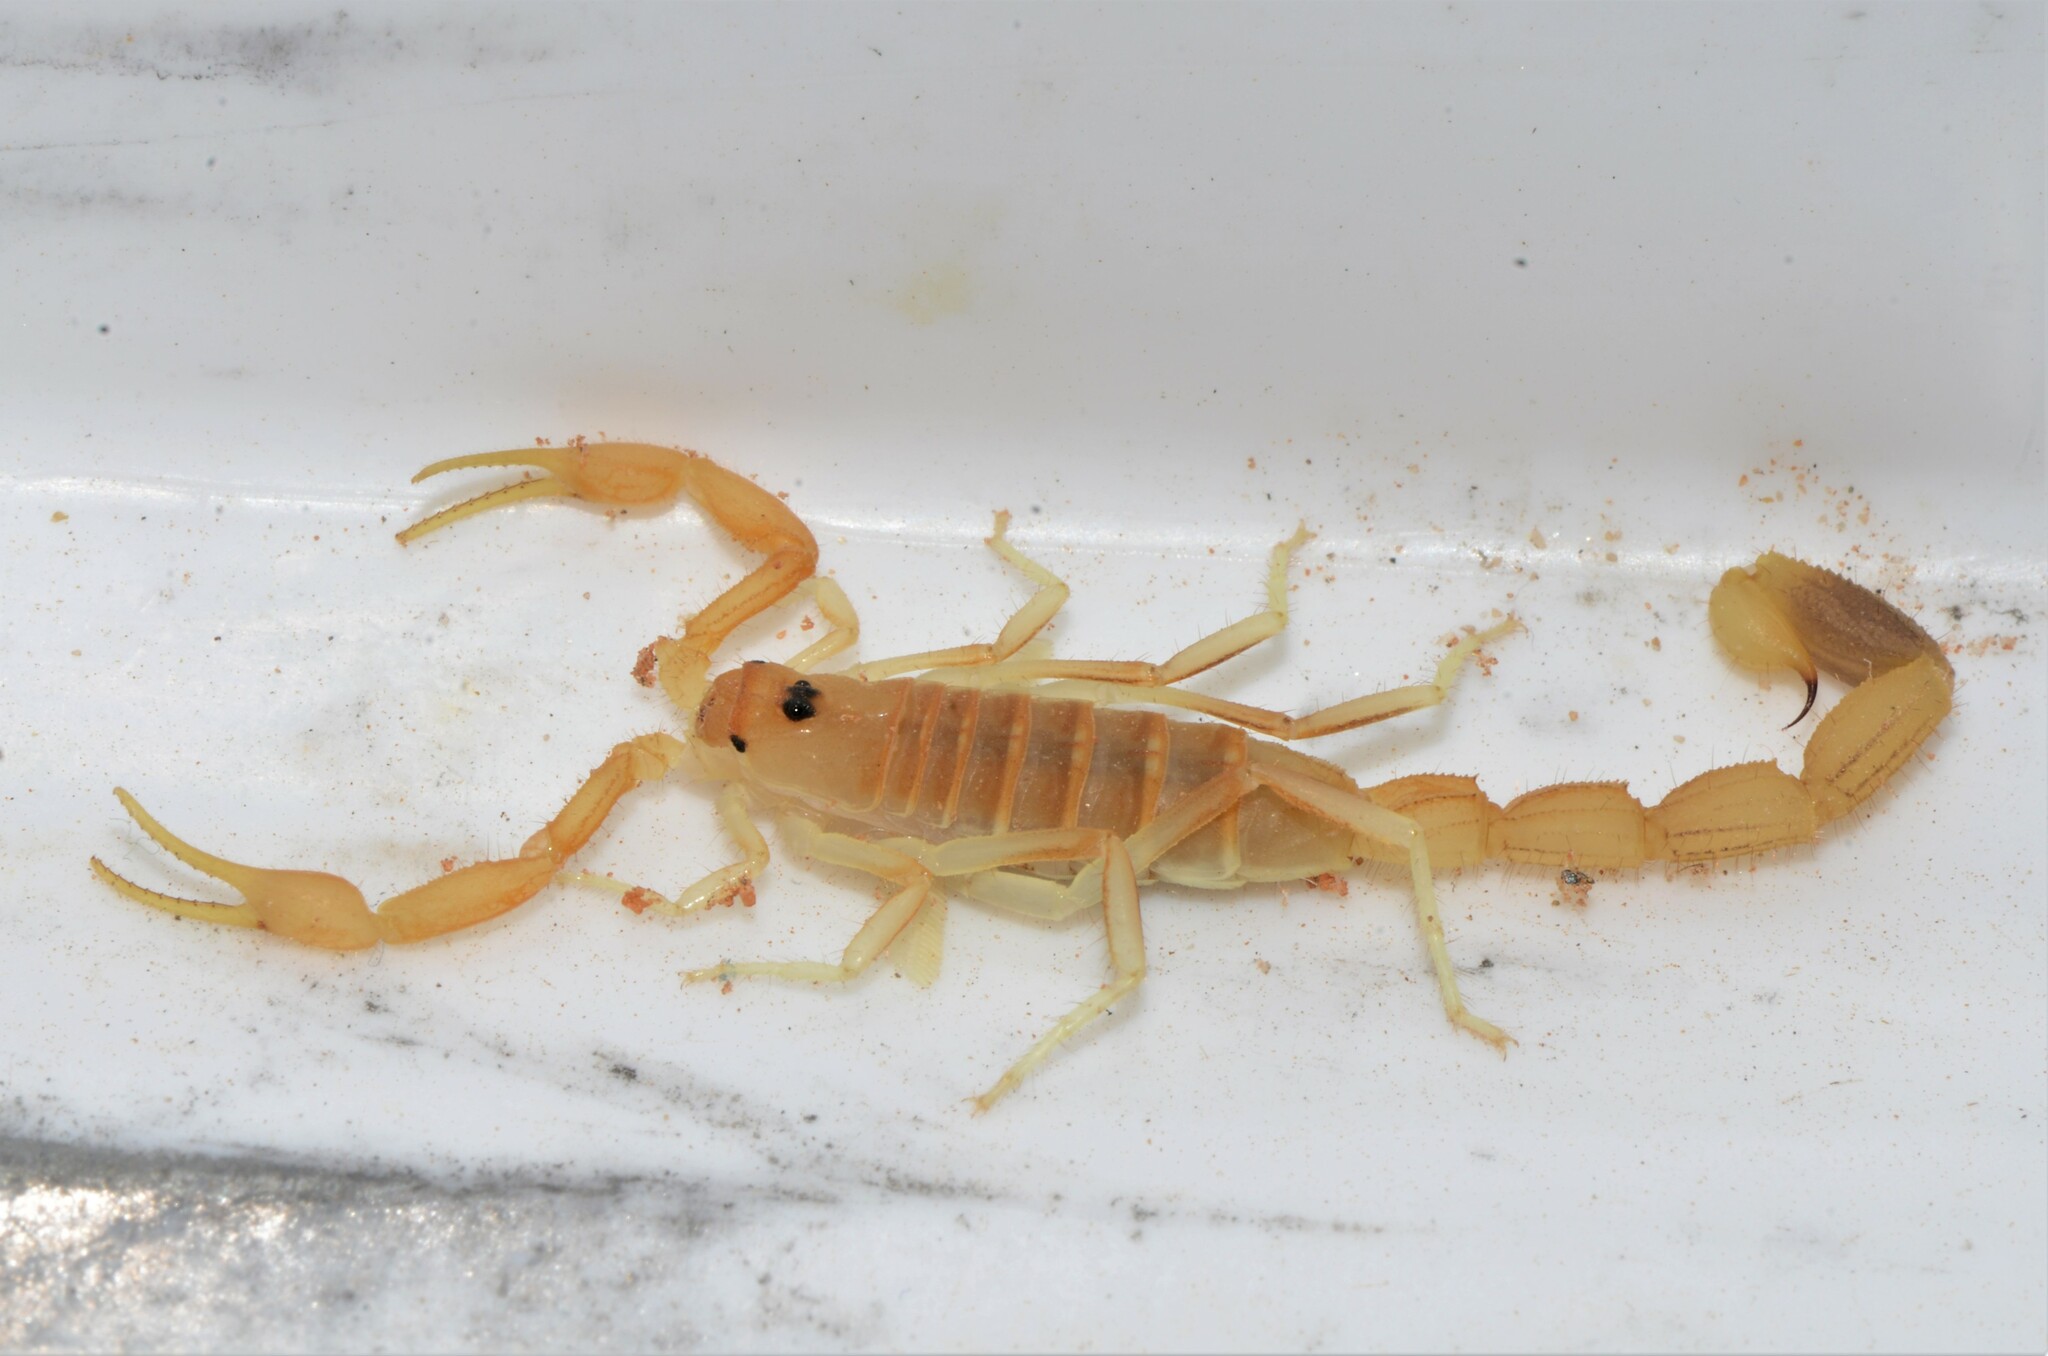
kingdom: Animalia
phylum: Arthropoda
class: Arachnida
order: Scorpiones
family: Buthidae
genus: Uroplectes
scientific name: Uroplectes gracilior
